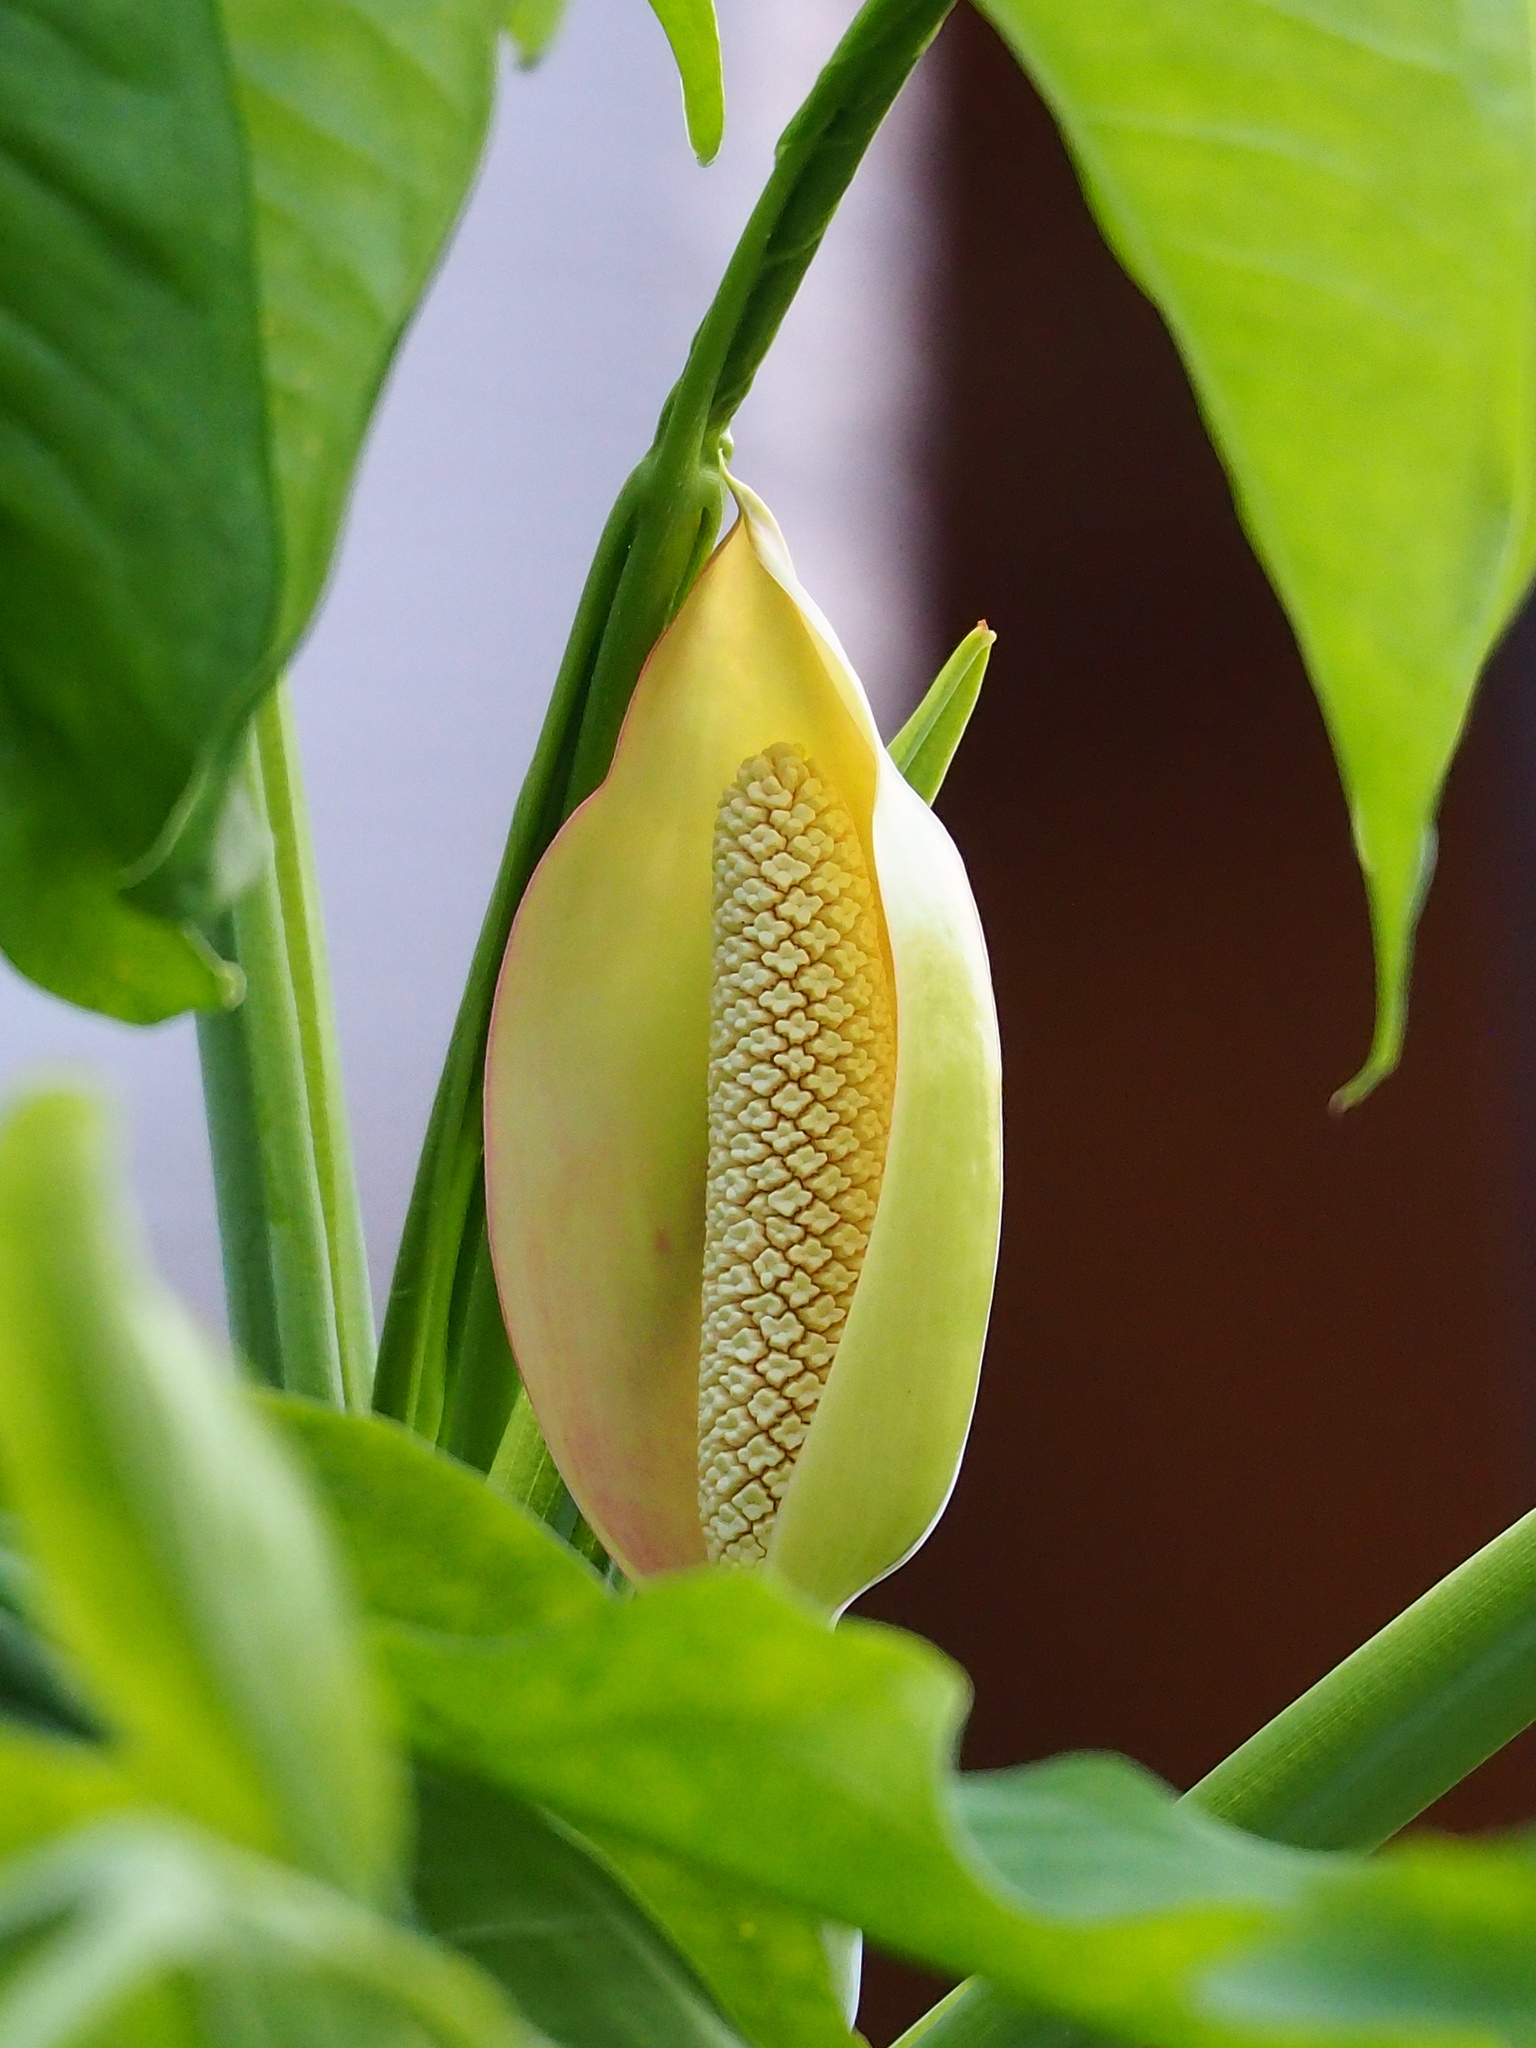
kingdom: Plantae
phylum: Tracheophyta
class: Liliopsida
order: Alismatales
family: Araceae
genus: Syngonium
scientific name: Syngonium angustatum
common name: Fivefingers
